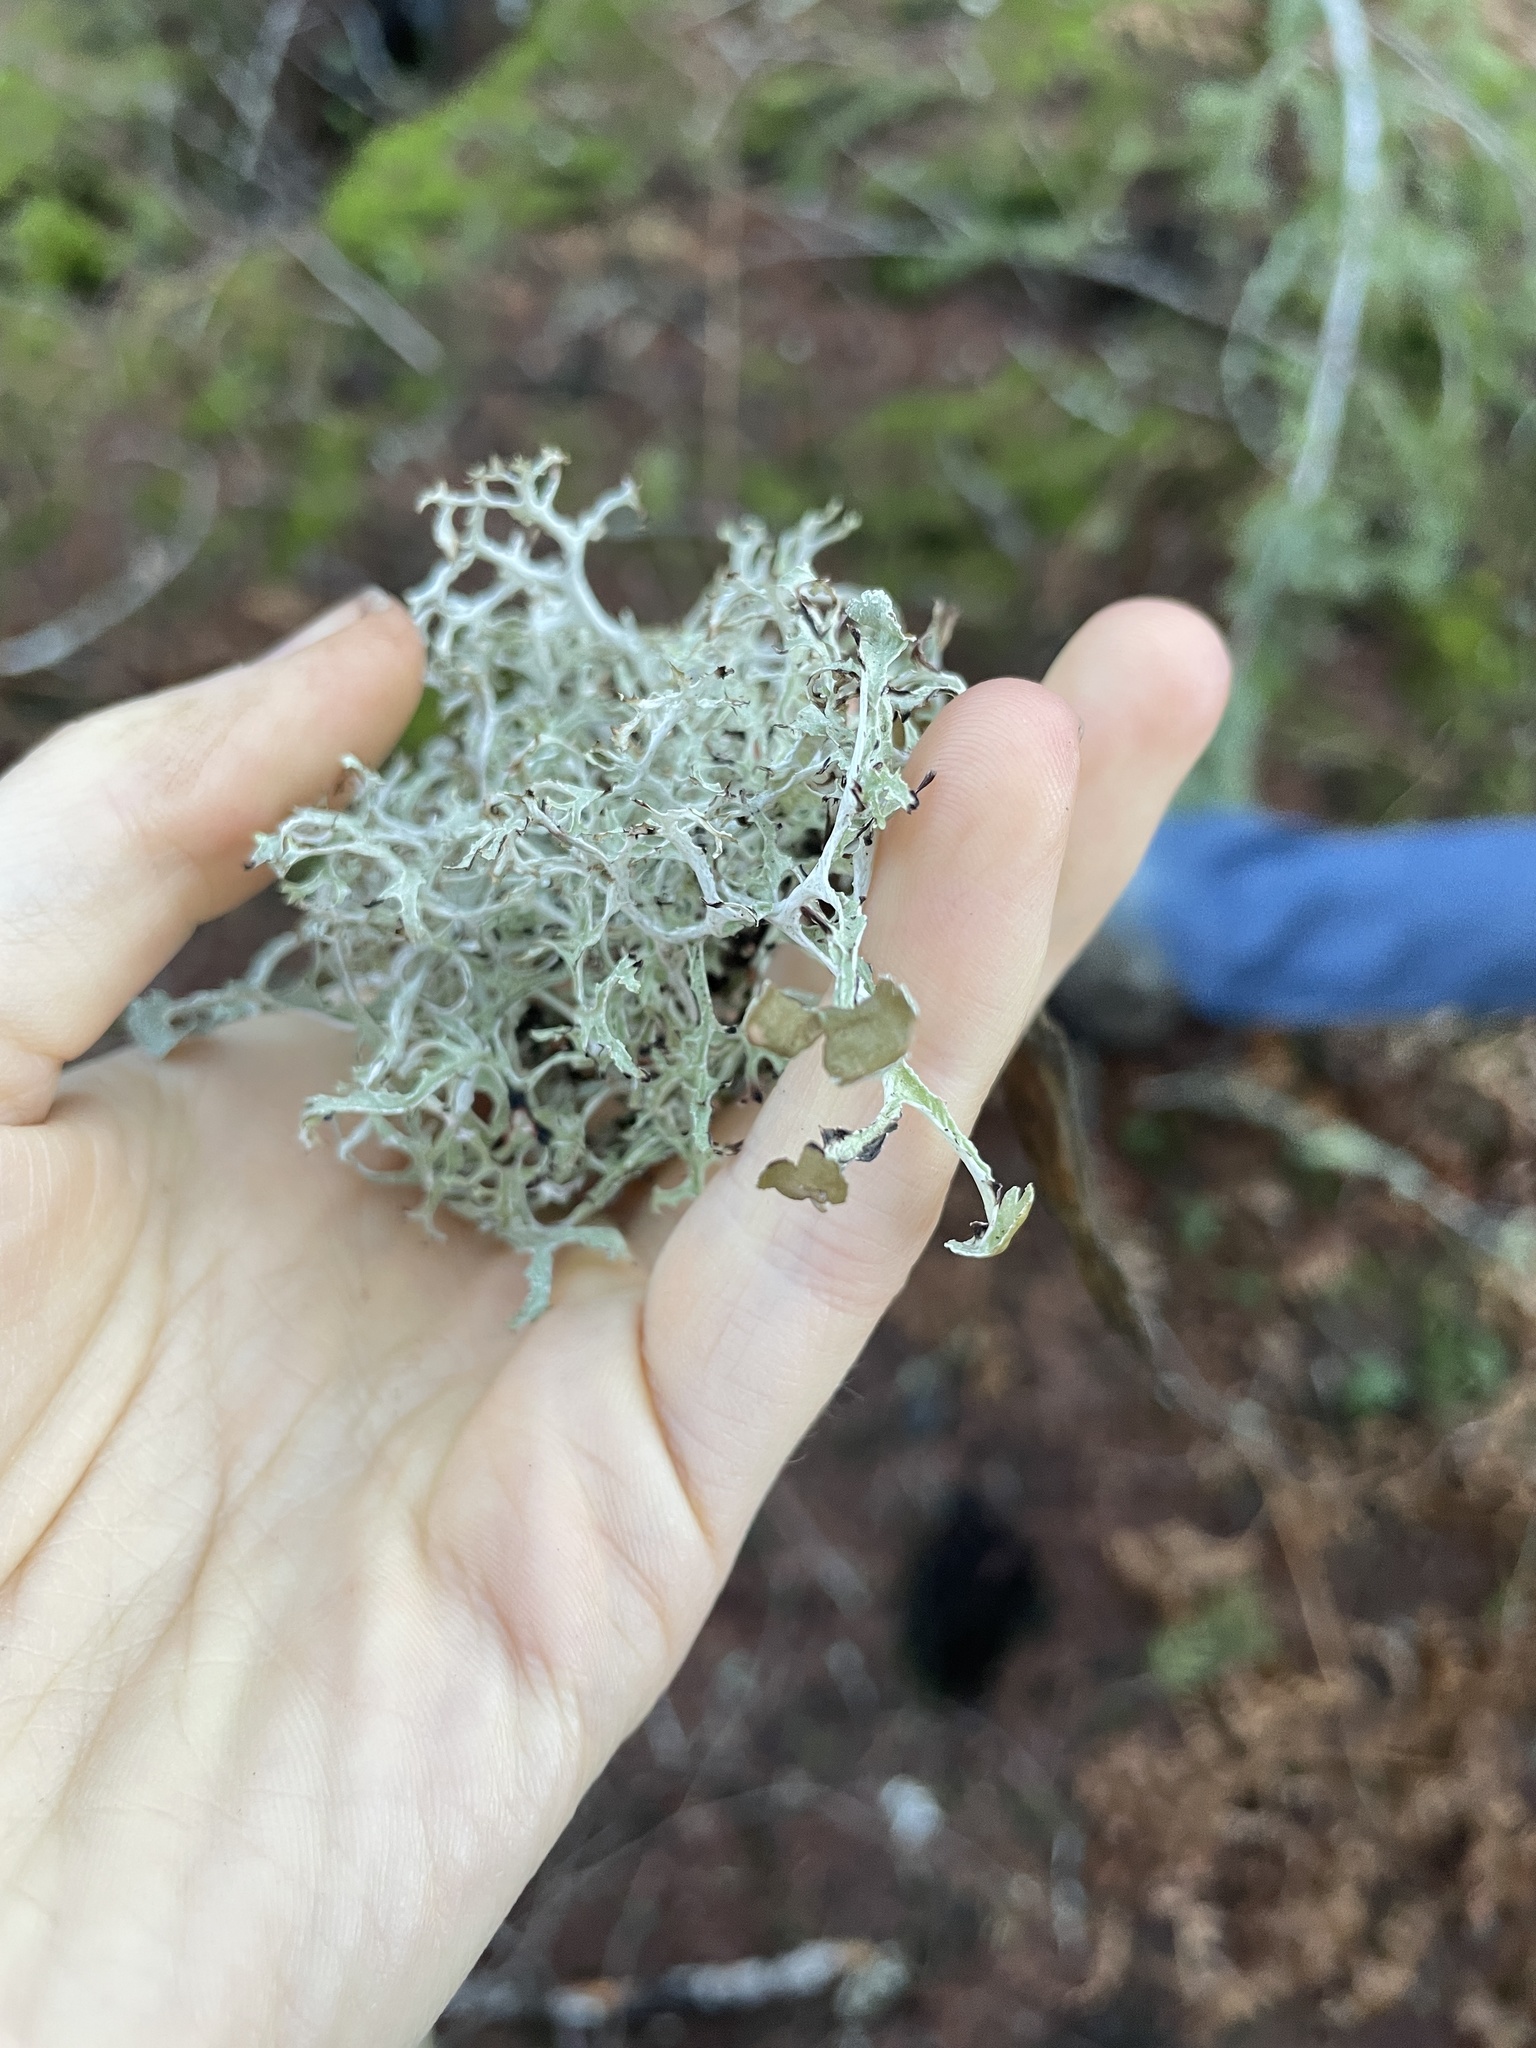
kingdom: Fungi
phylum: Ascomycota
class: Lecanoromycetes
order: Lecanorales
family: Parmeliaceae
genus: Platismatia
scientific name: Platismatia stenophylla
